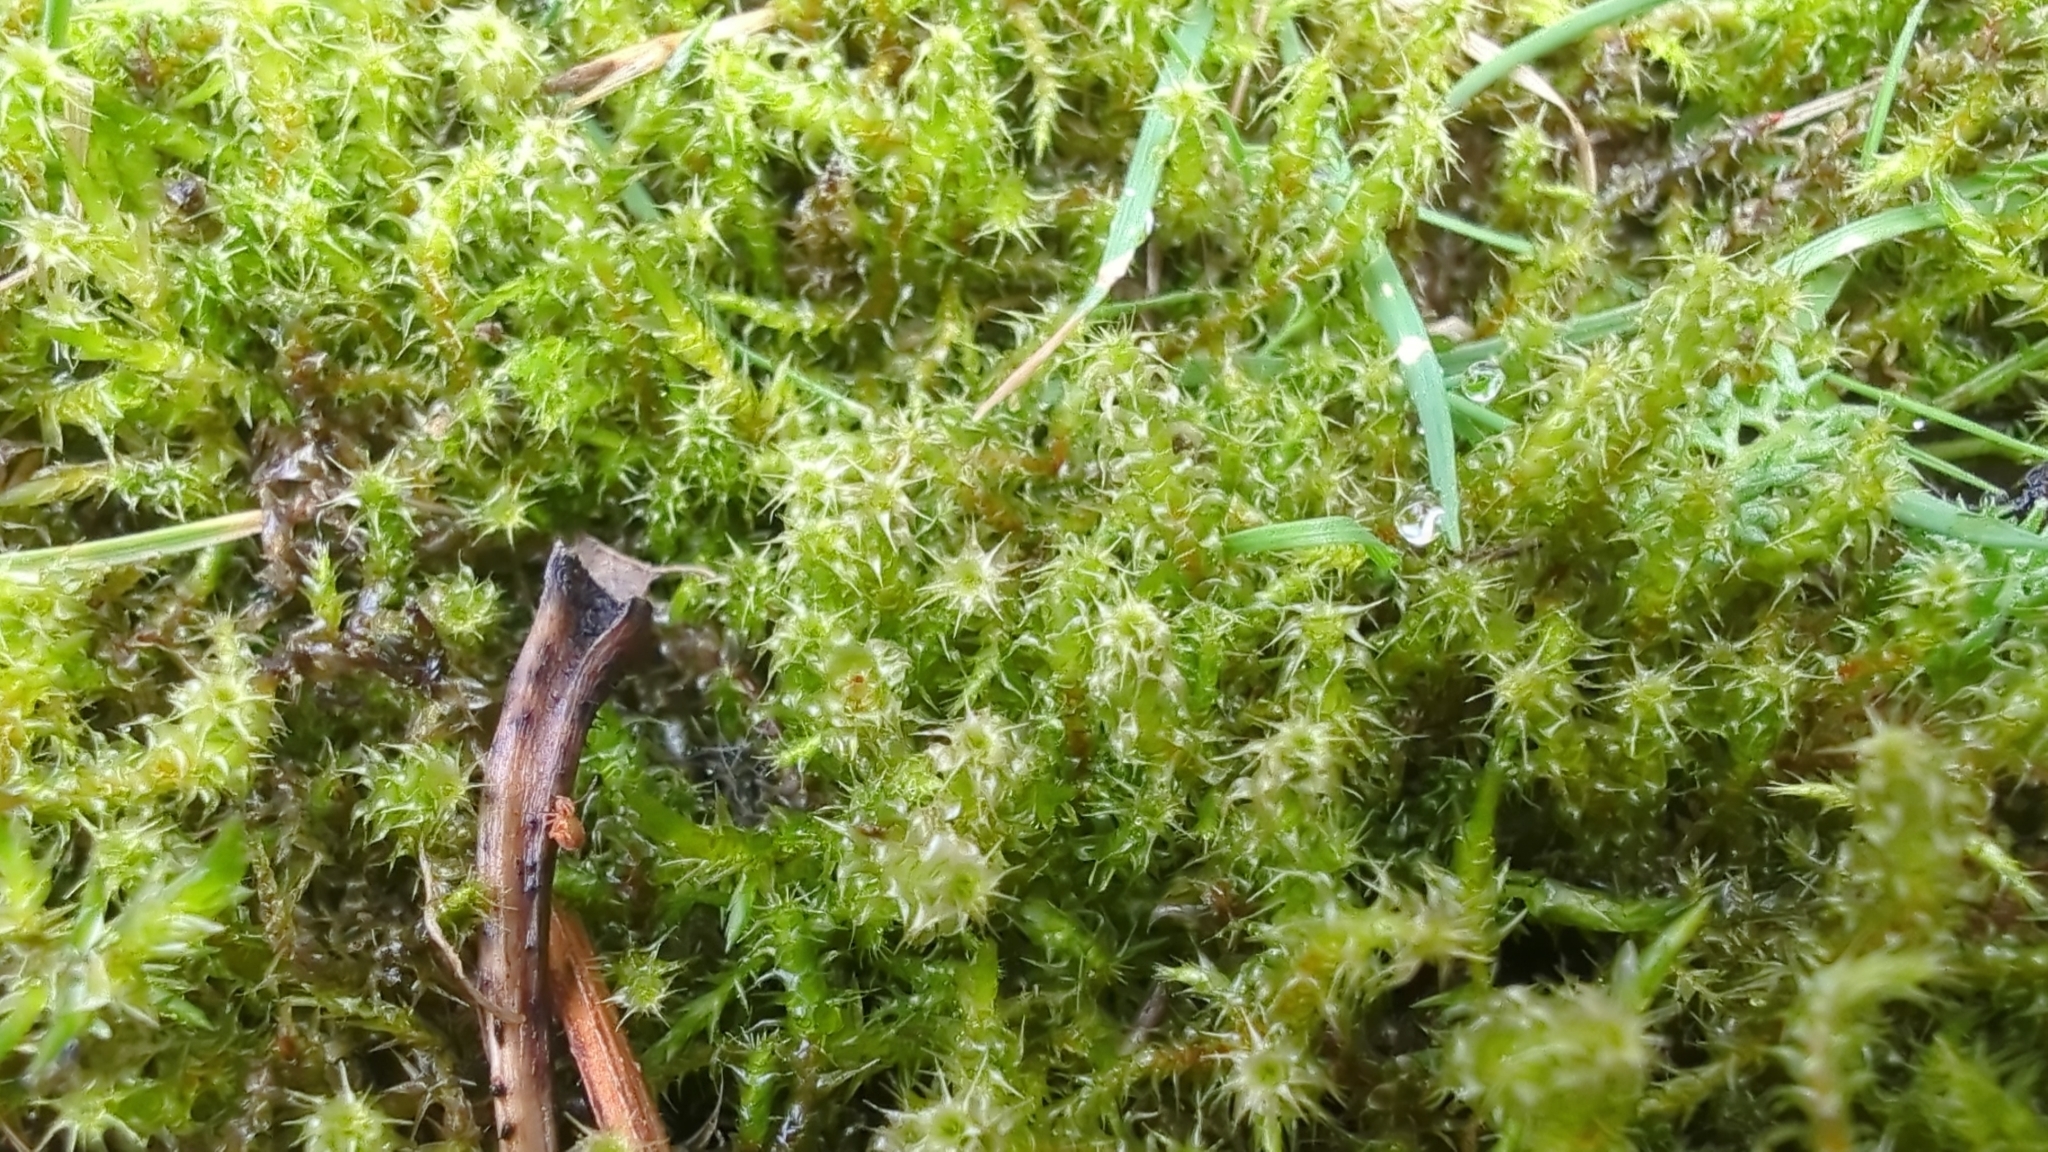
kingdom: Plantae
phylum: Bryophyta
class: Bryopsida
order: Hypnales
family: Hylocomiaceae
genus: Rhytidiadelphus
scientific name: Rhytidiadelphus squarrosus
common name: Springy turf-moss
